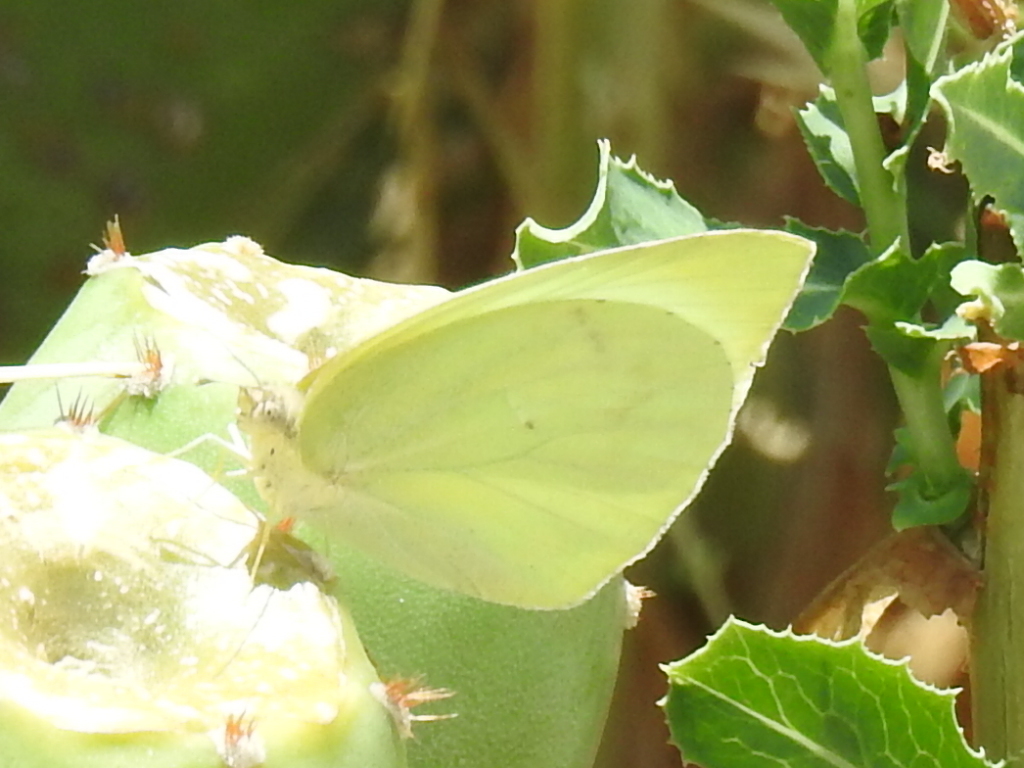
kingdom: Animalia
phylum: Arthropoda
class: Insecta
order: Lepidoptera
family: Pieridae
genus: Kricogonia
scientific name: Kricogonia lyside
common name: Guayacan sulphur,
